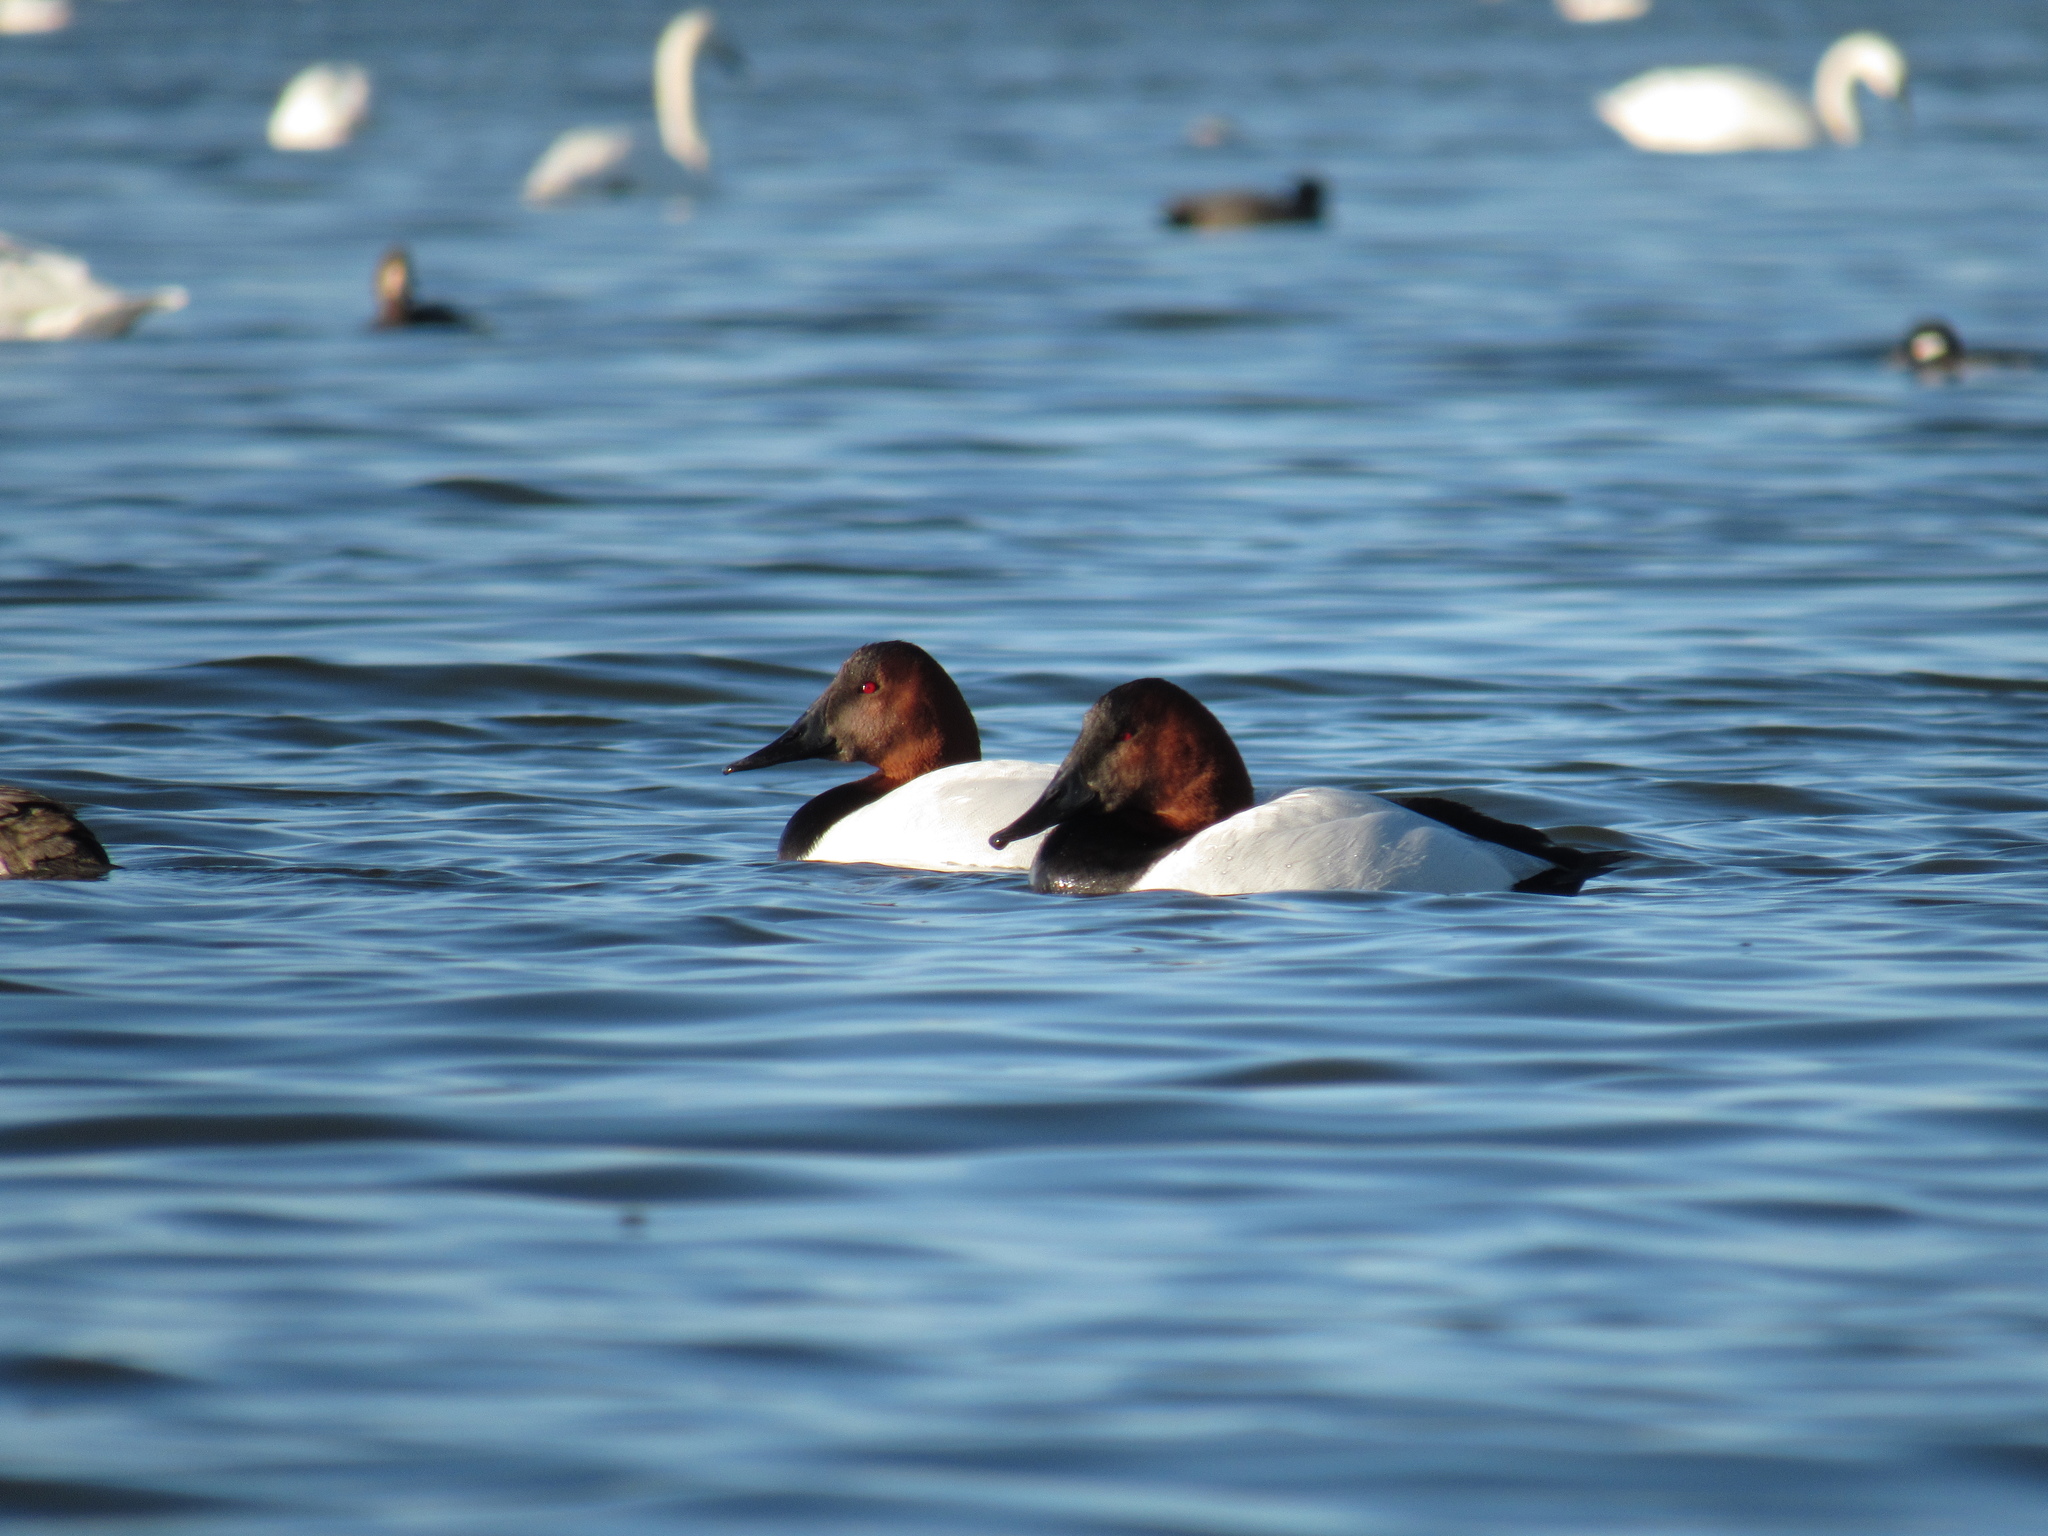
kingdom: Animalia
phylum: Chordata
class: Aves
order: Anseriformes
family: Anatidae
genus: Aythya
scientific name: Aythya valisineria
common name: Canvasback
